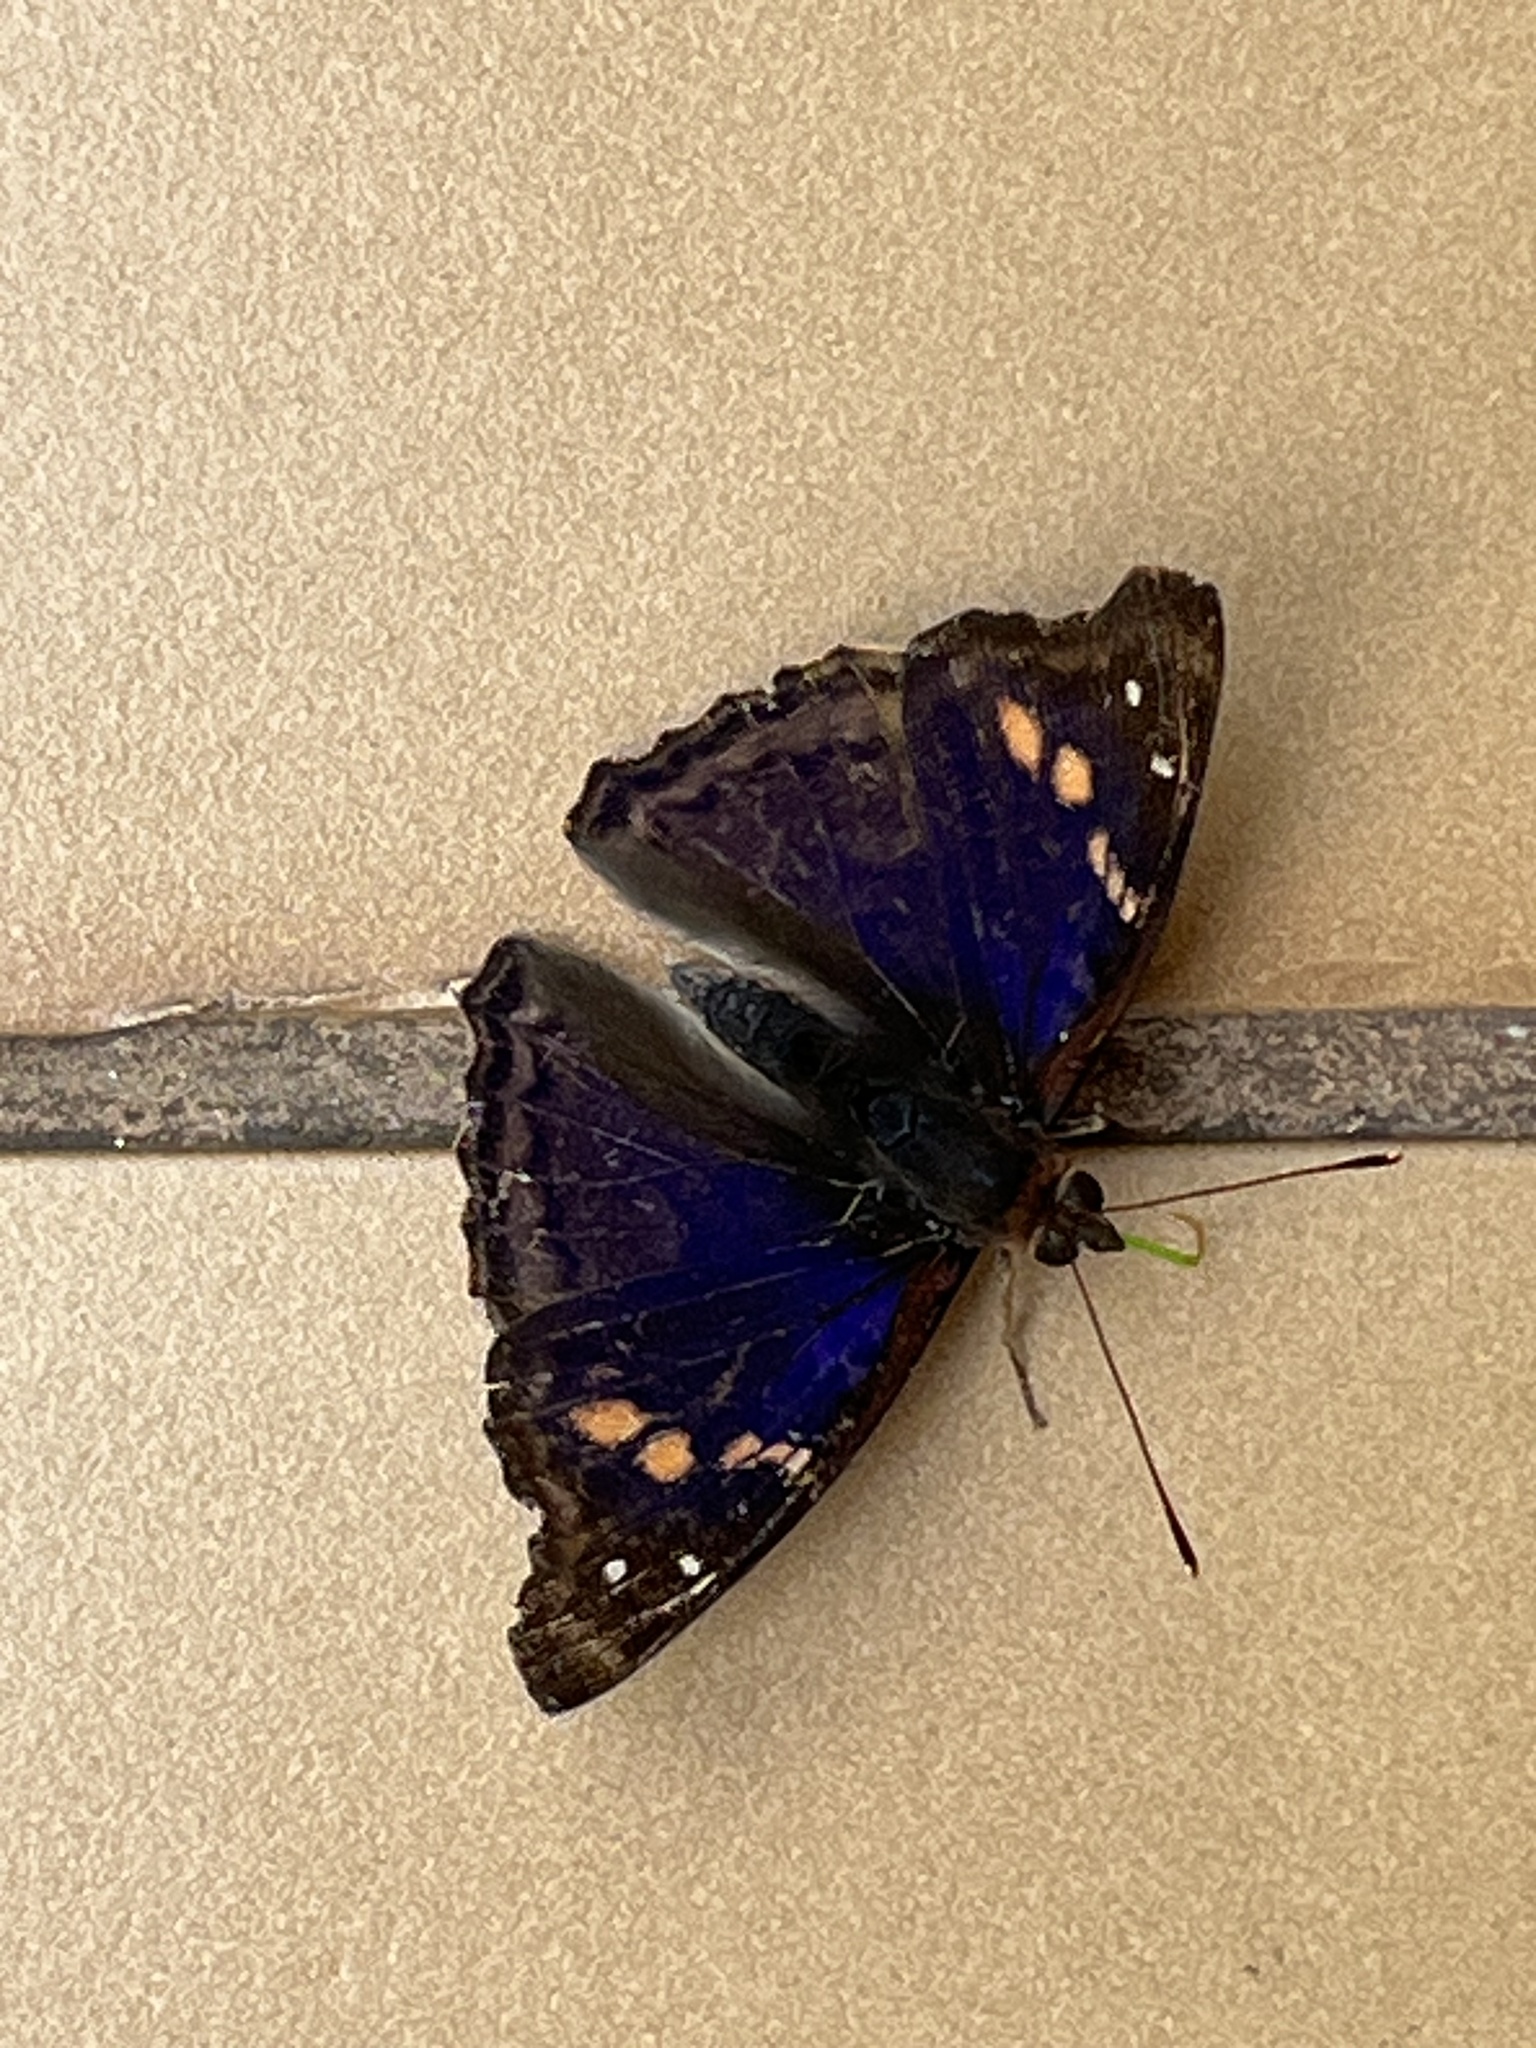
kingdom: Animalia
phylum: Arthropoda
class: Insecta
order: Lepidoptera
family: Nymphalidae
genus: Doxocopa
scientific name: Doxocopa agathina
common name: Agathina emperor
